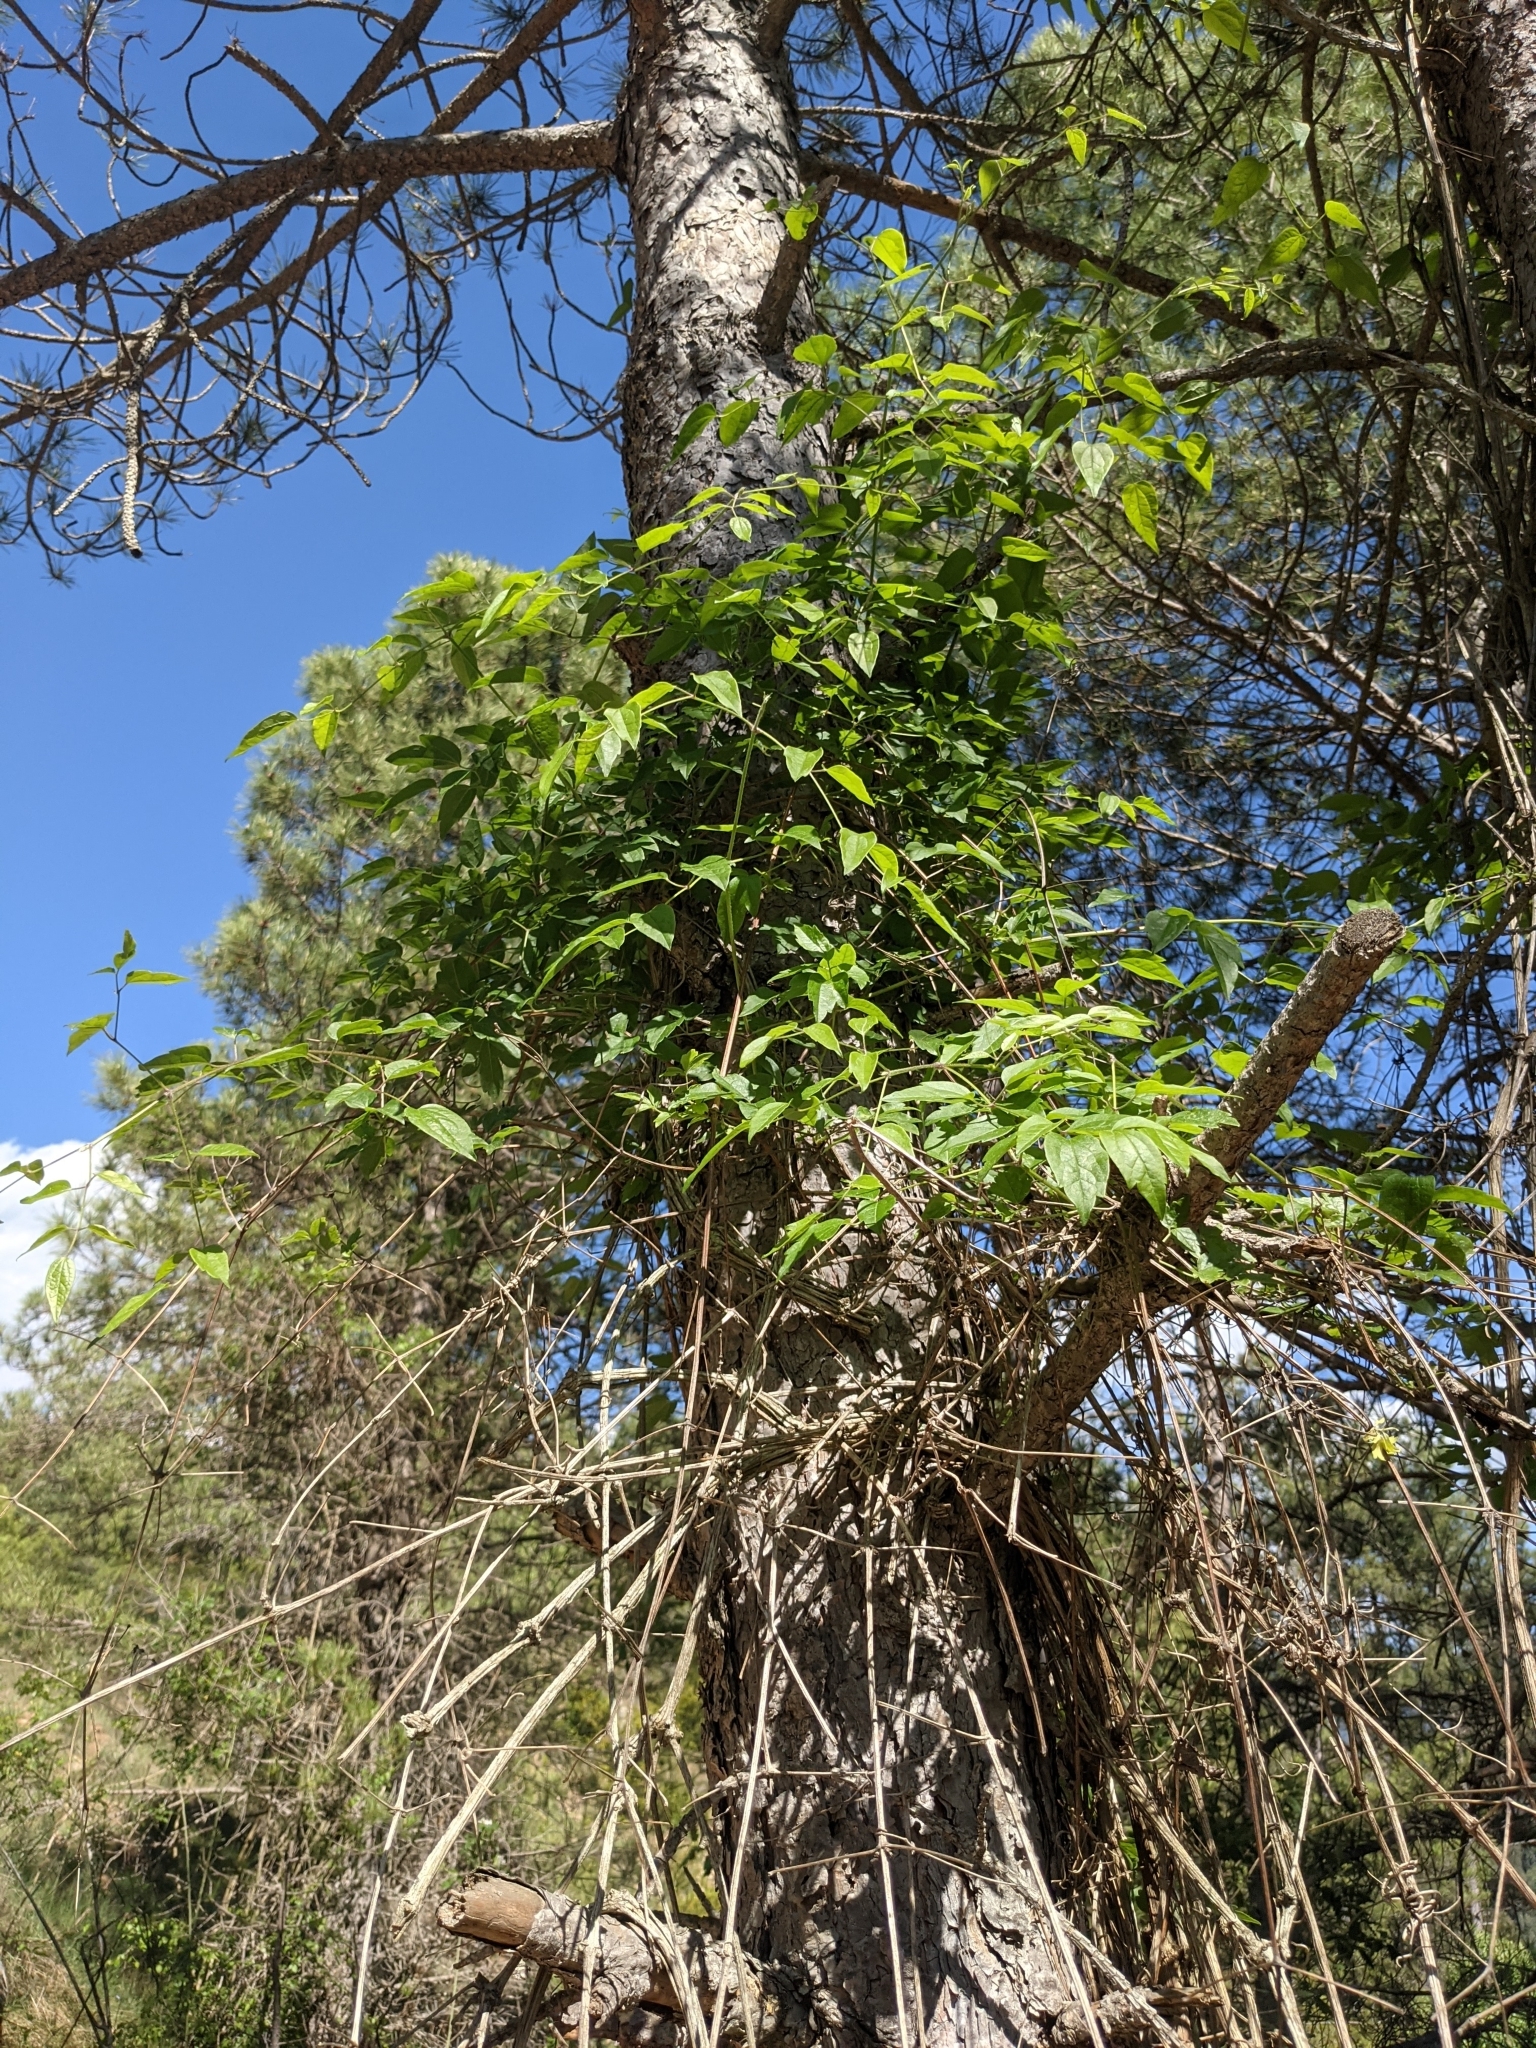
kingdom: Plantae
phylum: Tracheophyta
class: Magnoliopsida
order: Ranunculales
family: Ranunculaceae
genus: Clematis
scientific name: Clematis vitalba
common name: Evergreen clematis
